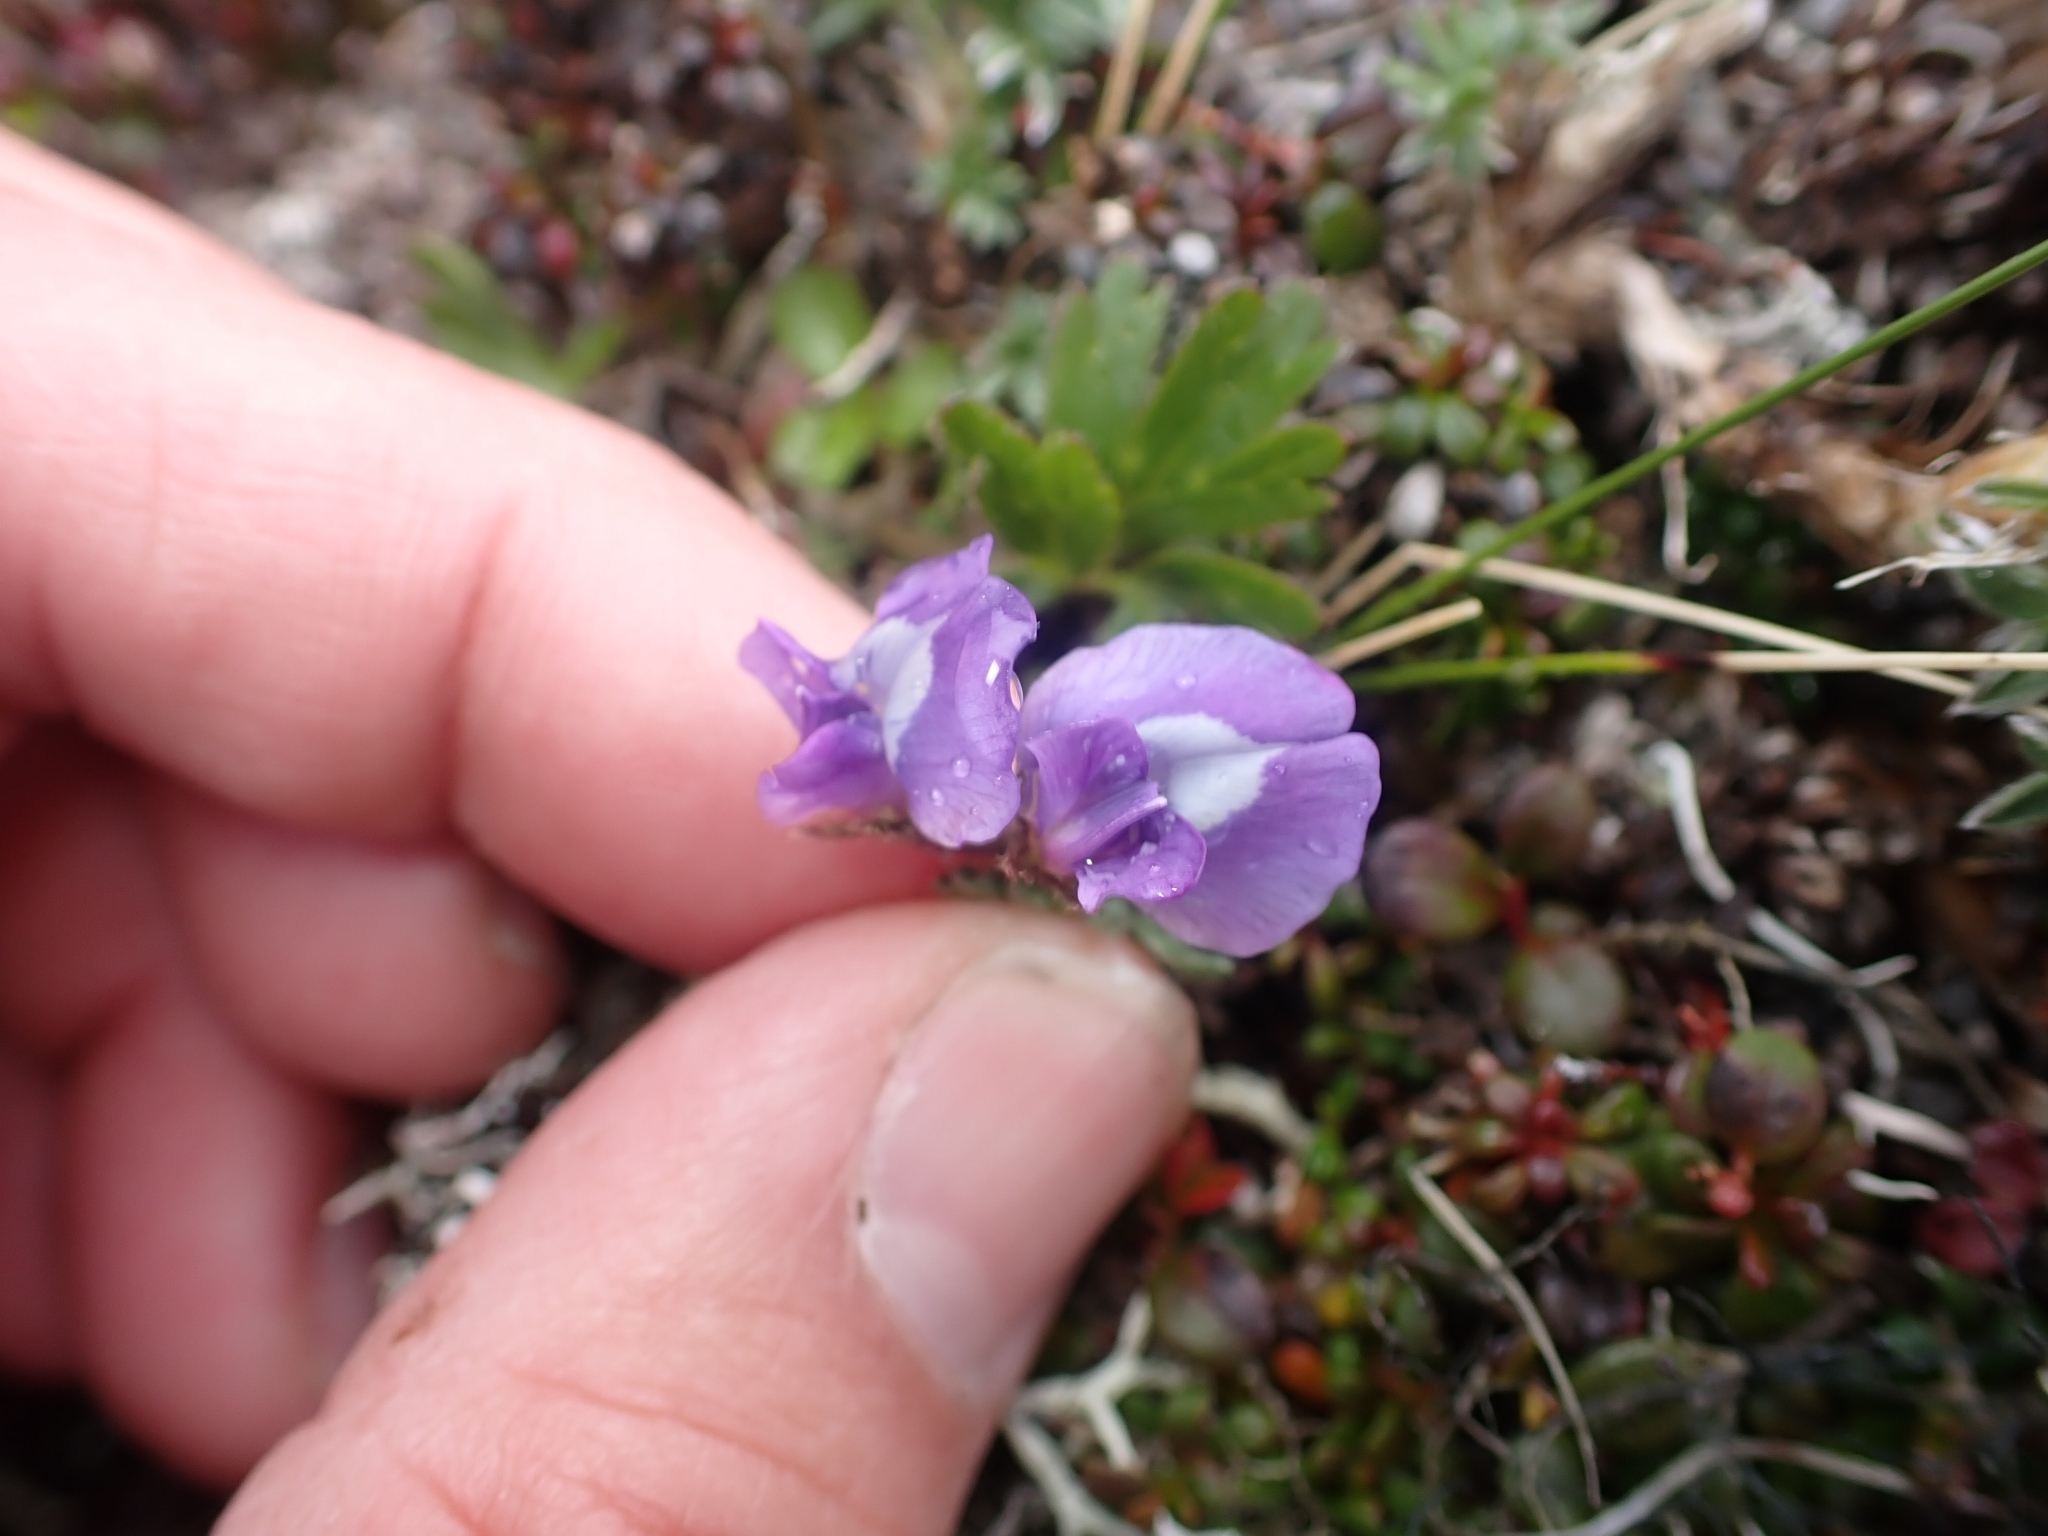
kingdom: Plantae
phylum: Tracheophyta
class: Magnoliopsida
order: Fabales
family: Fabaceae
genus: Oxytropis
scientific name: Oxytropis nigrescens
